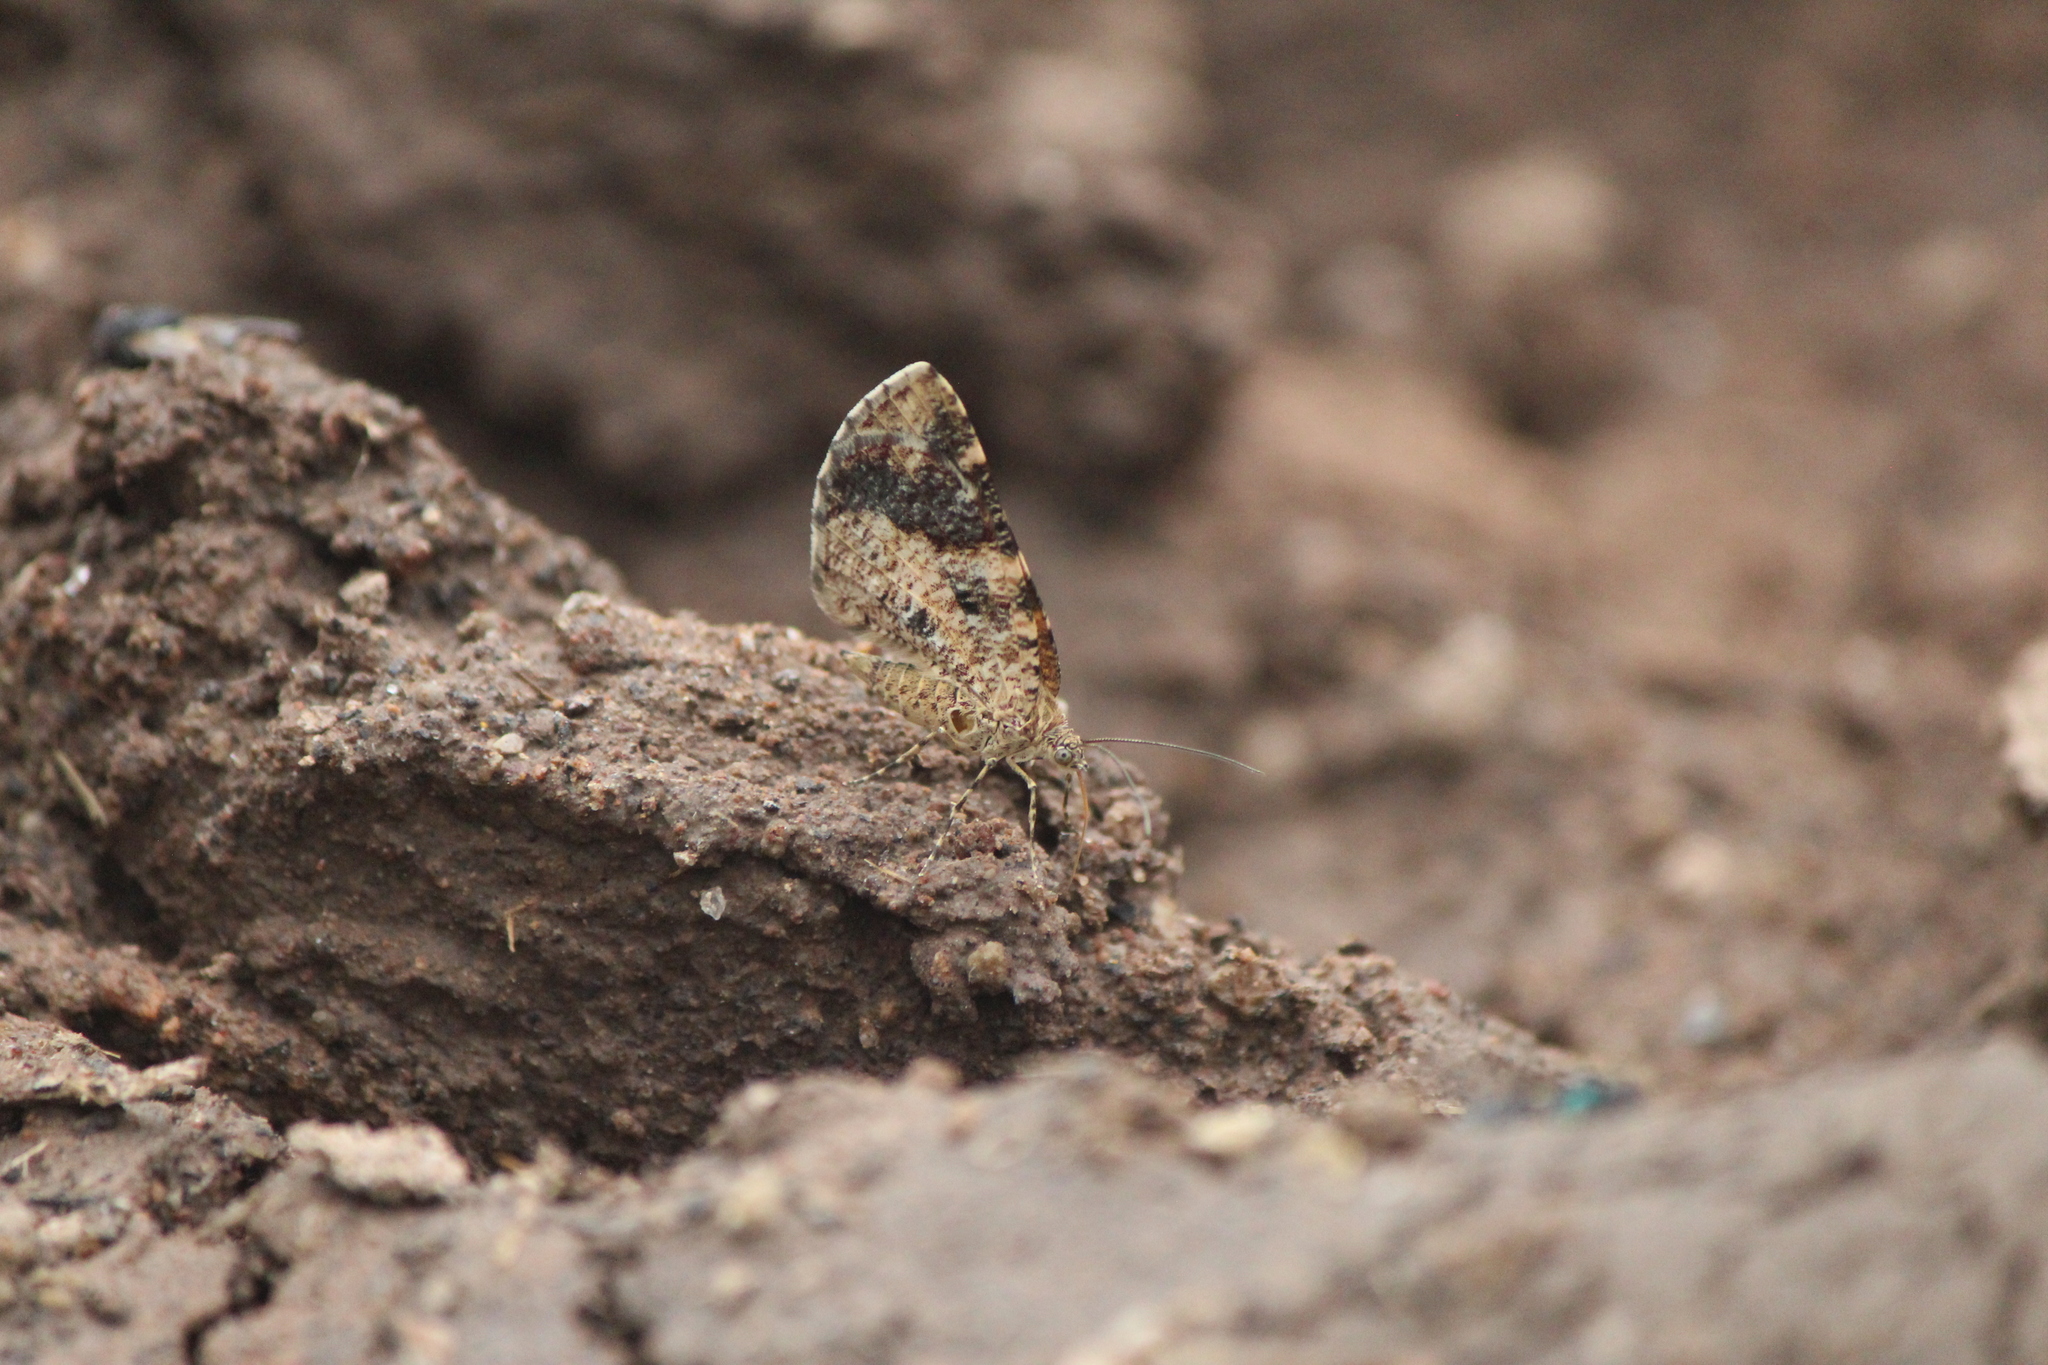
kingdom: Animalia
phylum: Arthropoda
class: Insecta
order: Lepidoptera
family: Geometridae
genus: Heterusia
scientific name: Heterusia atalantata
